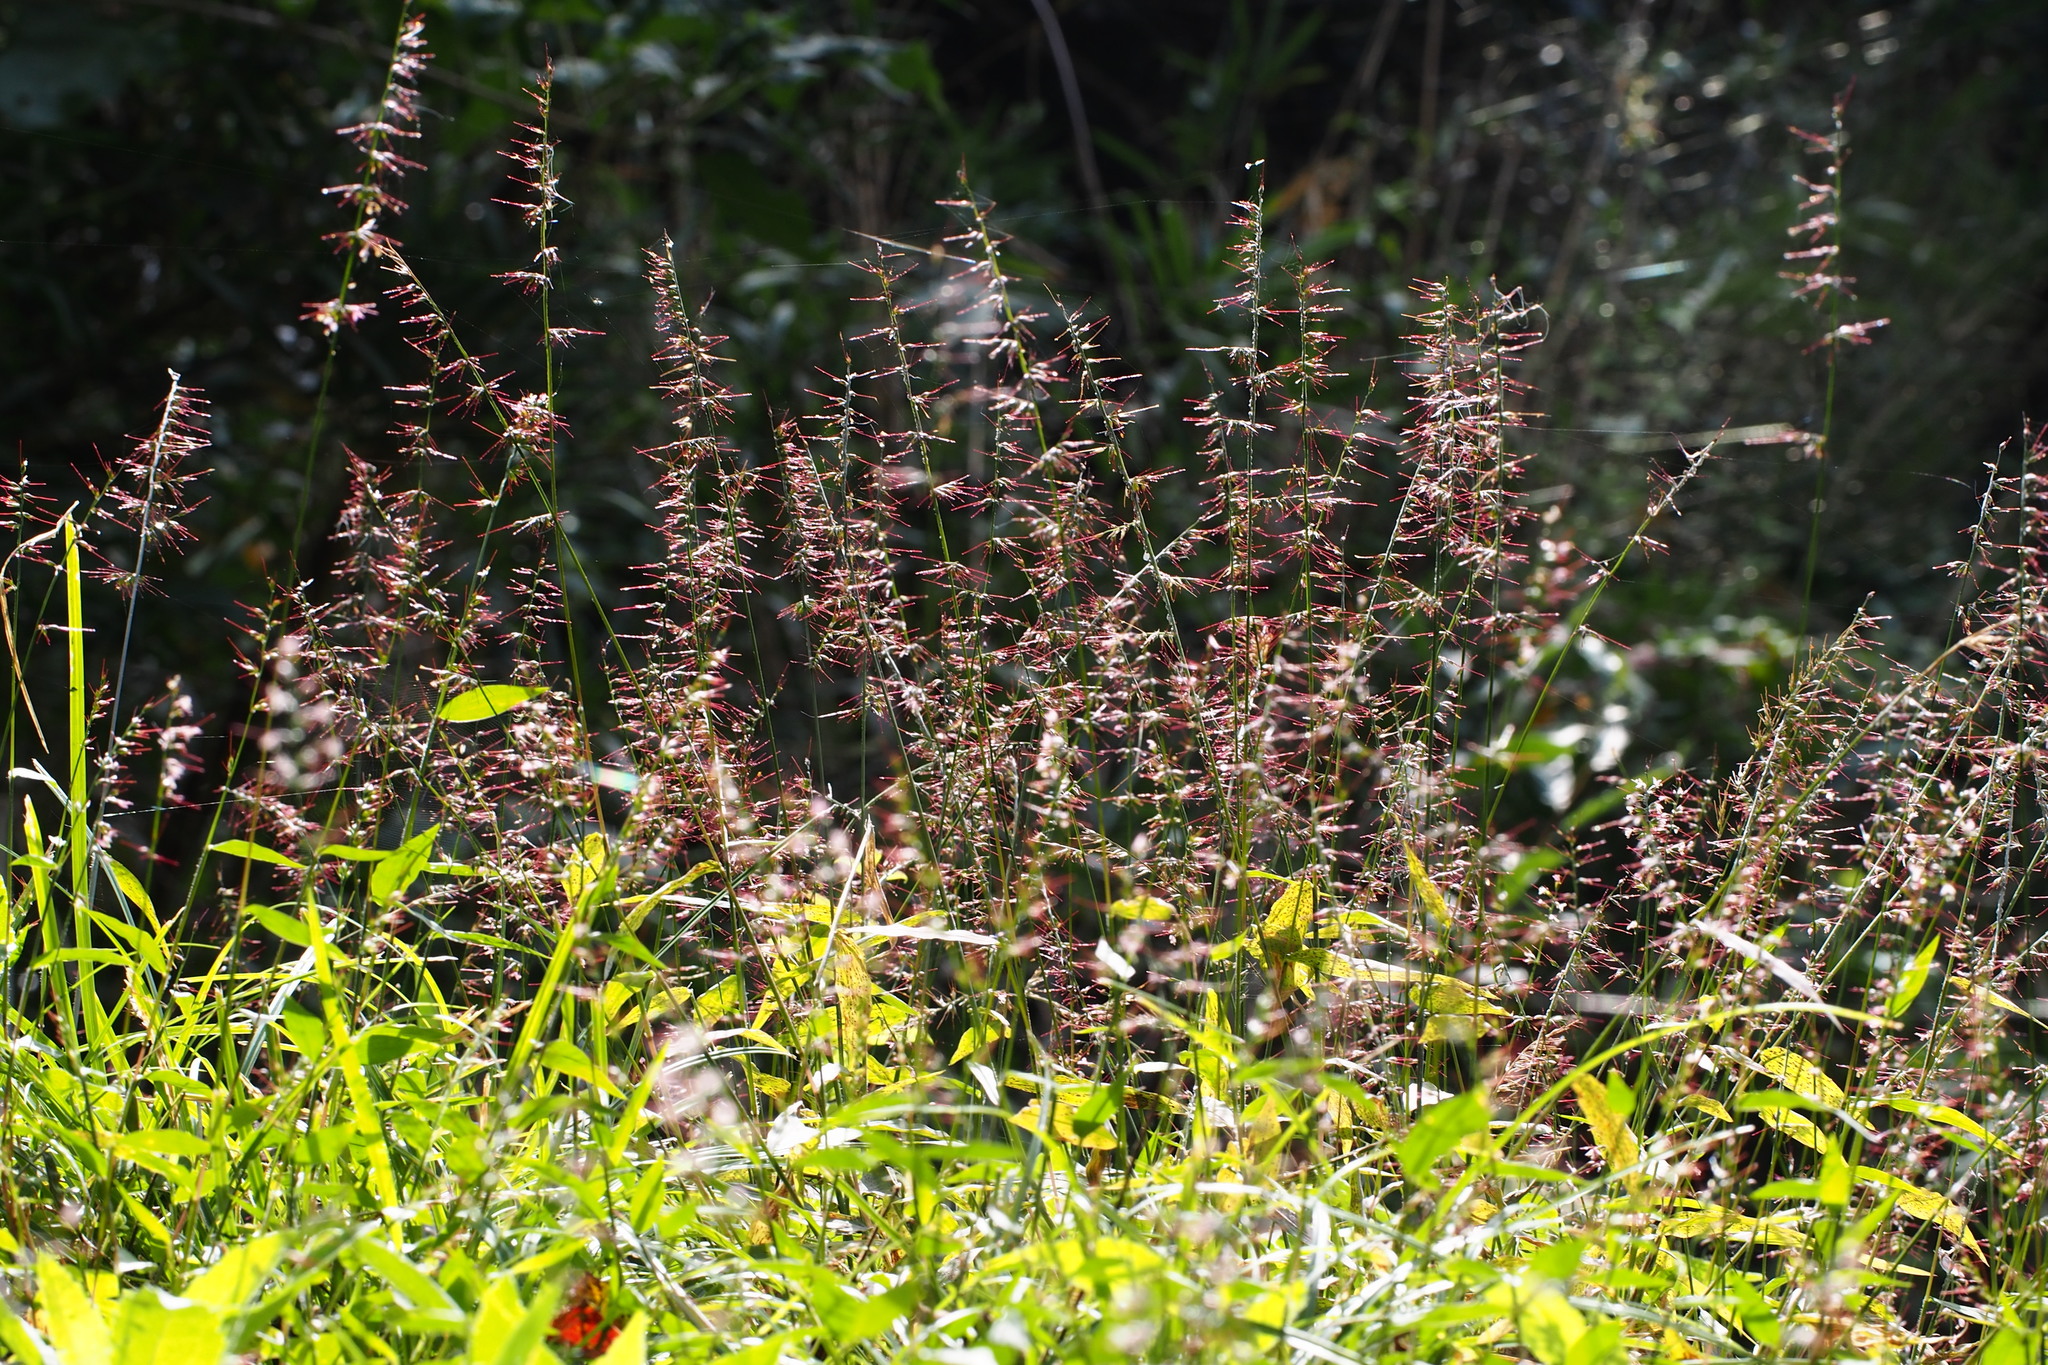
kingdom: Plantae
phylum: Tracheophyta
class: Liliopsida
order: Poales
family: Poaceae
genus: Oplismenus
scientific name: Oplismenus undulatifolius
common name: Wavyleaf basketgrass
